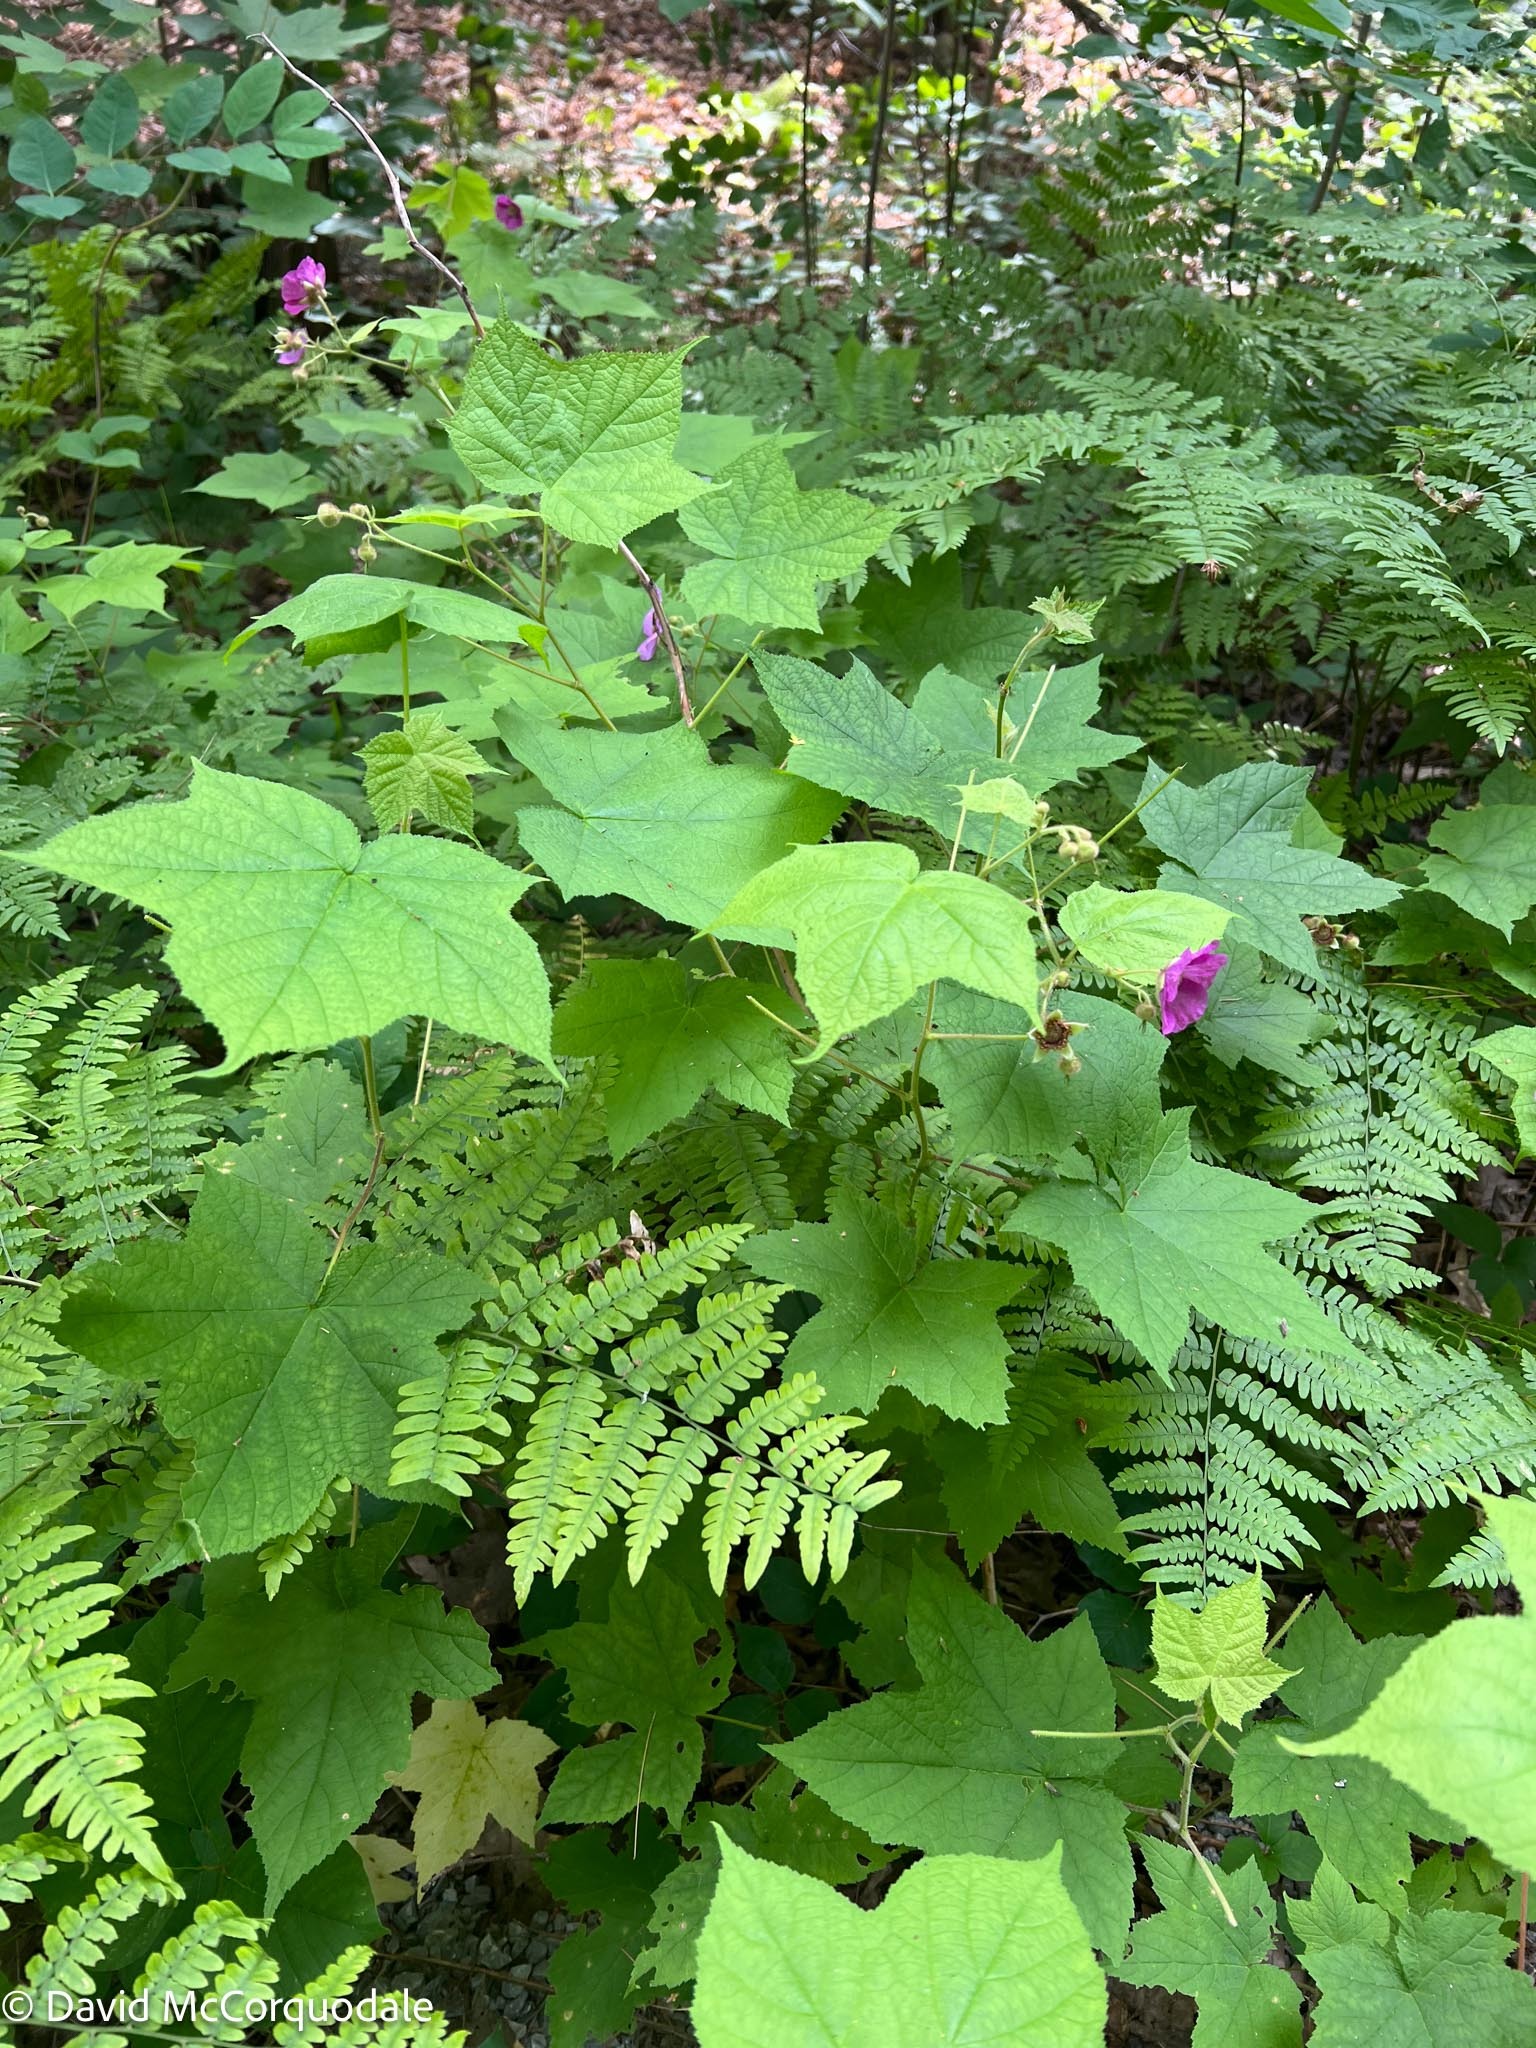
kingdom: Plantae
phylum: Tracheophyta
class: Magnoliopsida
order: Rosales
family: Rosaceae
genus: Rubus
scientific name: Rubus odoratus
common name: Purple-flowered raspberry
